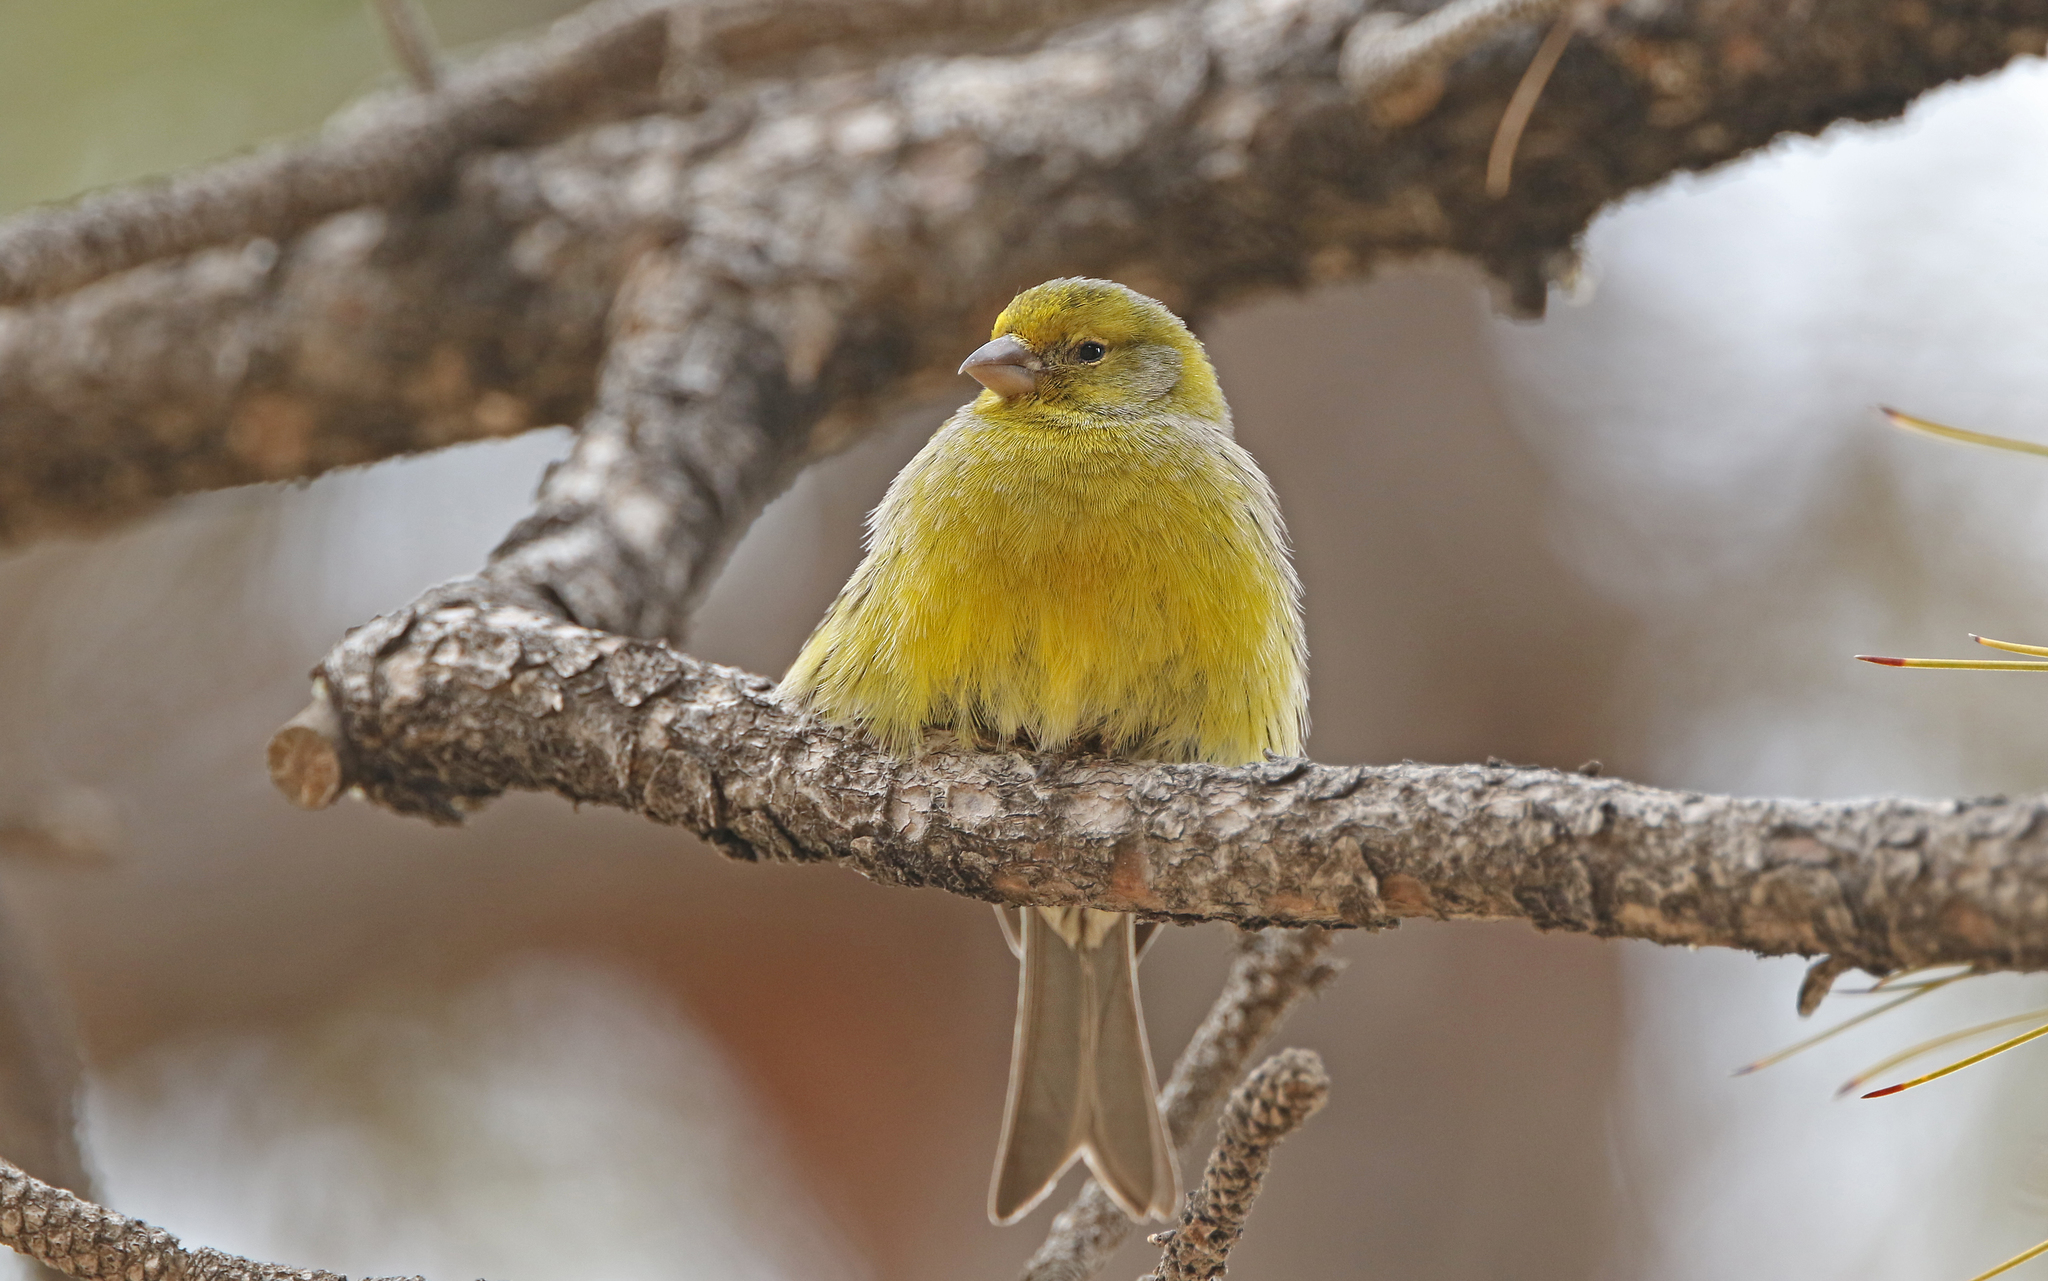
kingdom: Animalia
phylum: Chordata
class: Aves
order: Passeriformes
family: Fringillidae
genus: Serinus
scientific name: Serinus canaria
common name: Atlantic canary
